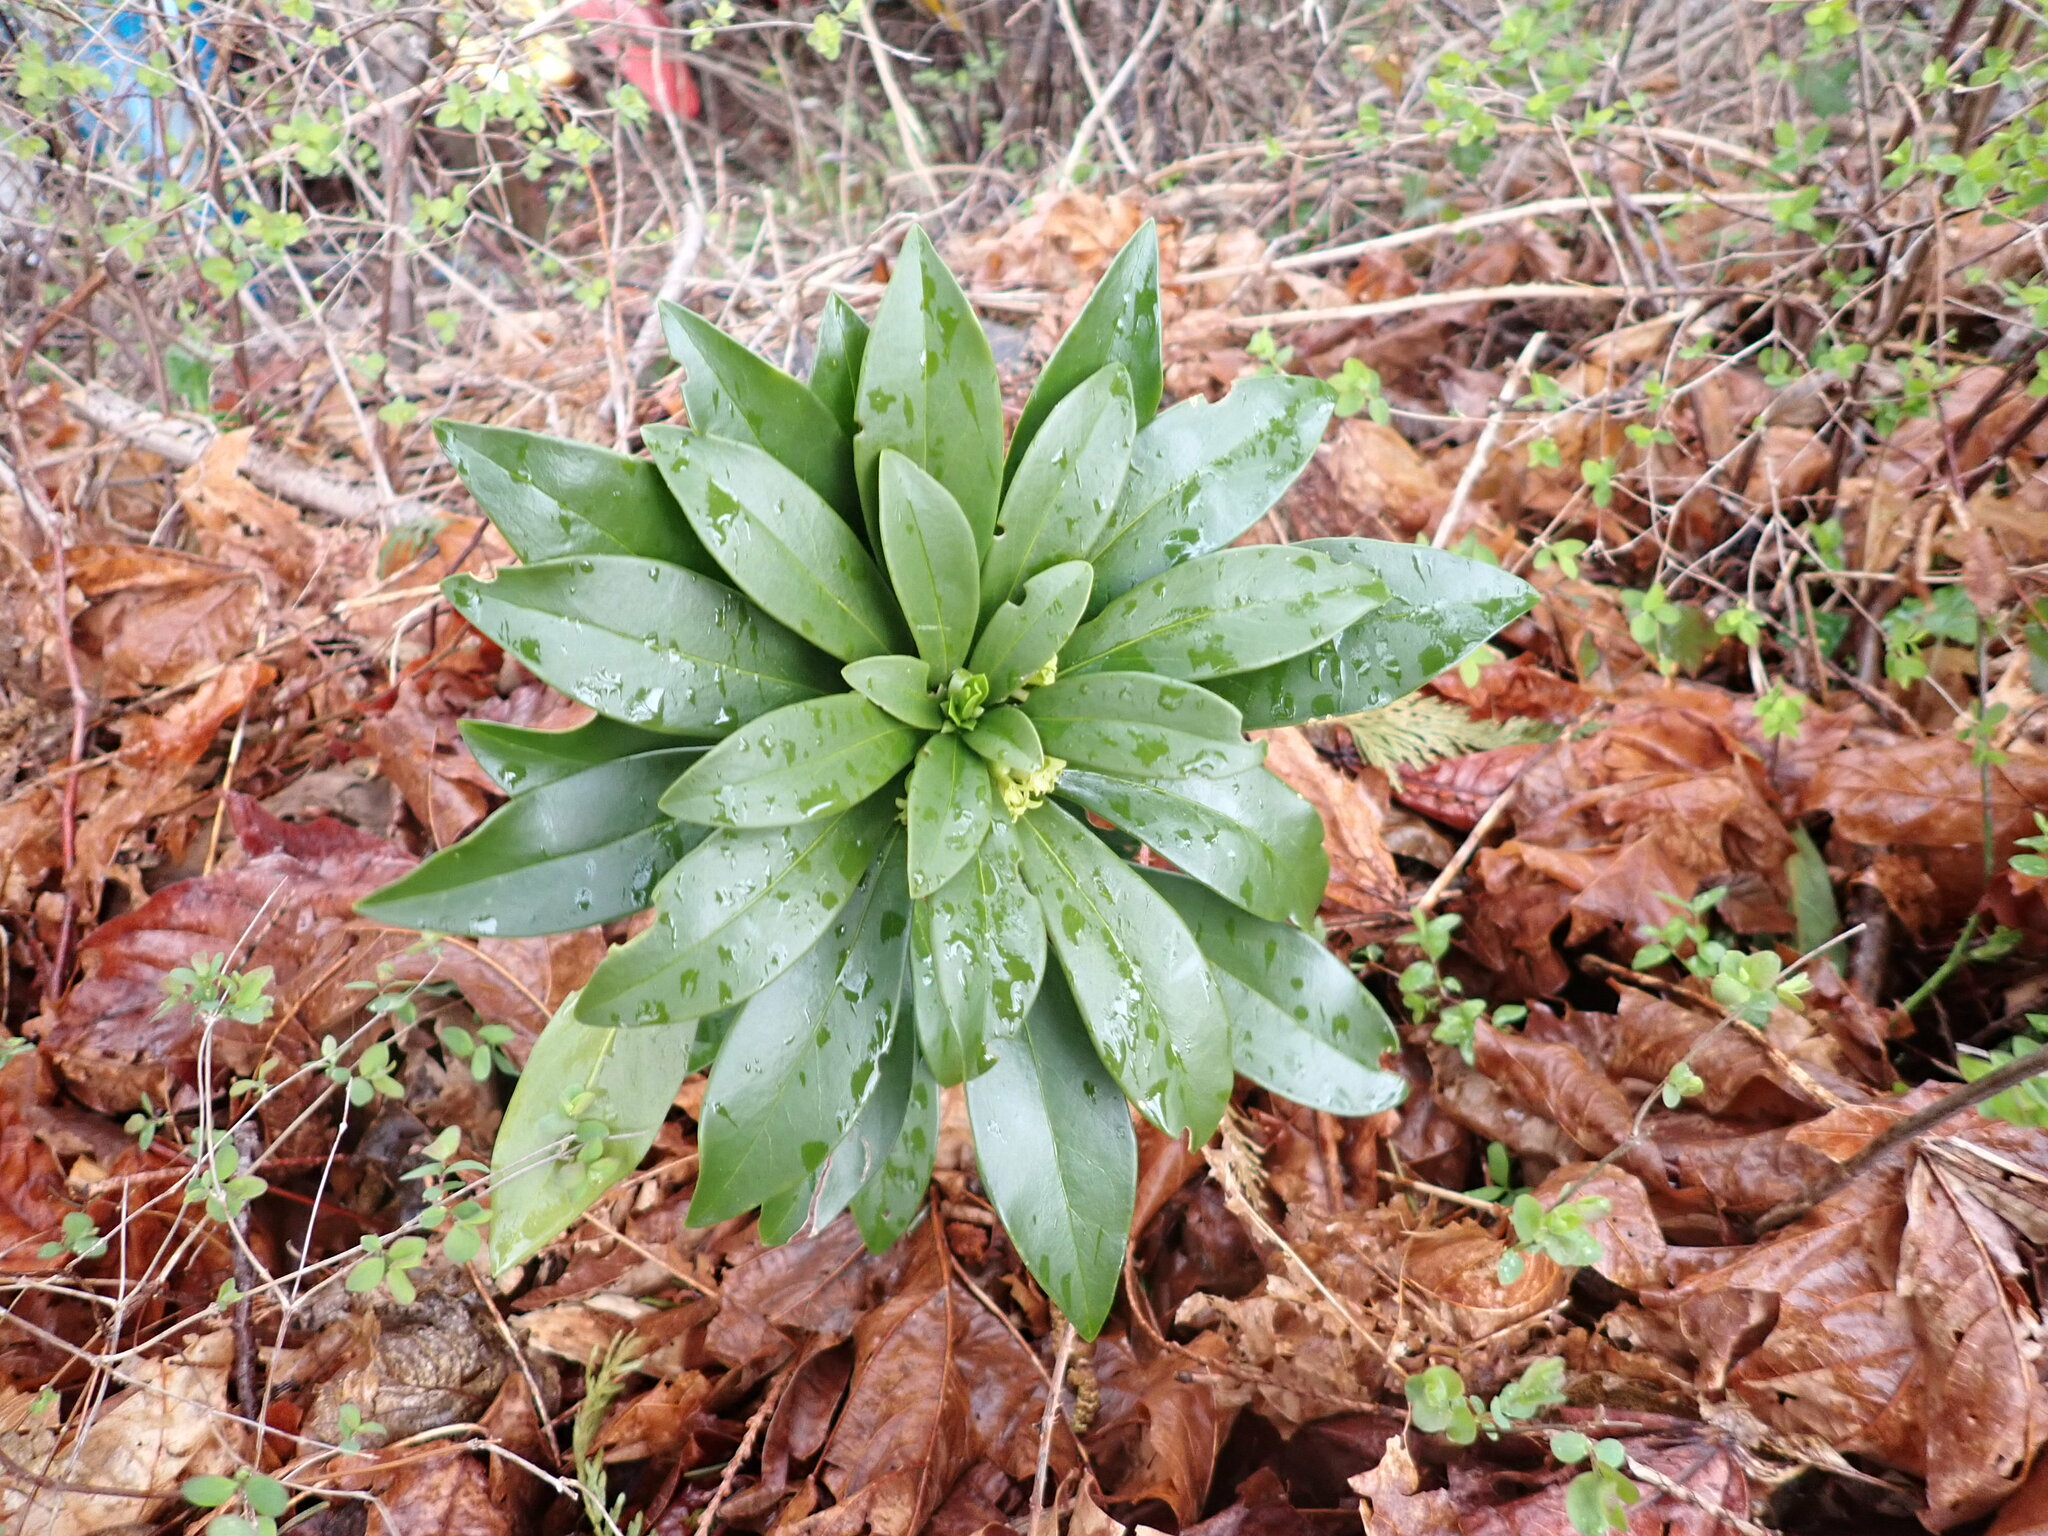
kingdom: Plantae
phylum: Tracheophyta
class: Magnoliopsida
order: Malvales
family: Thymelaeaceae
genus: Daphne
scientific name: Daphne laureola
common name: Spurge-laurel
